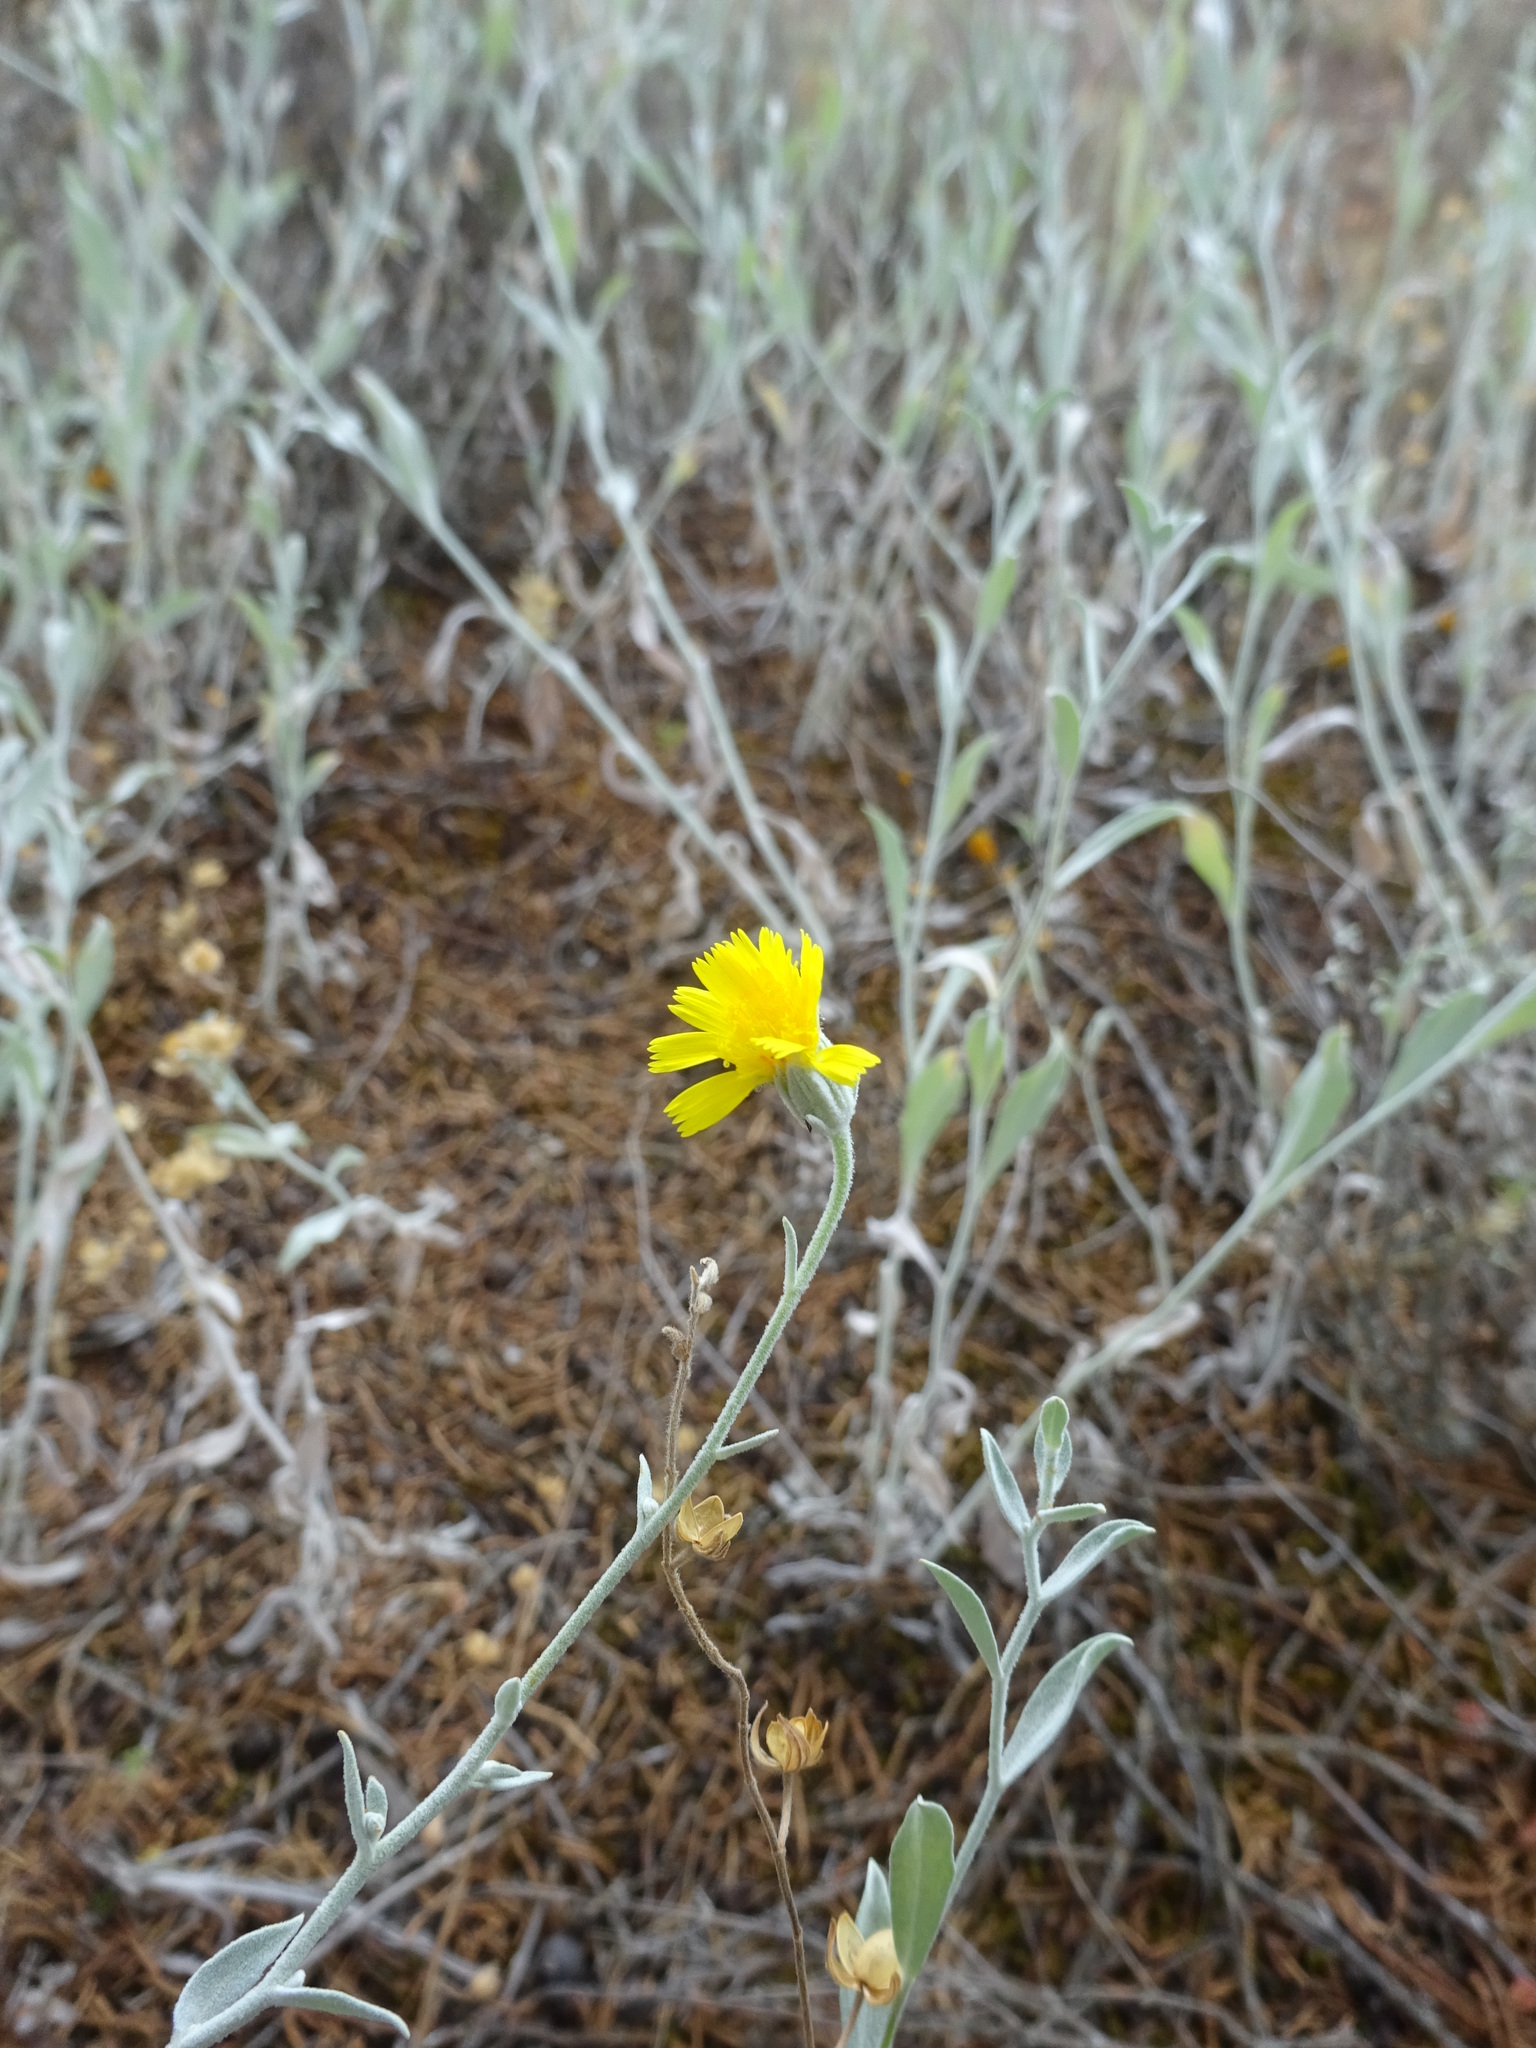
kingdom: Plantae
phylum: Tracheophyta
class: Magnoliopsida
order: Asterales
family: Asteraceae
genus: Andryala
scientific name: Andryala ragusina
